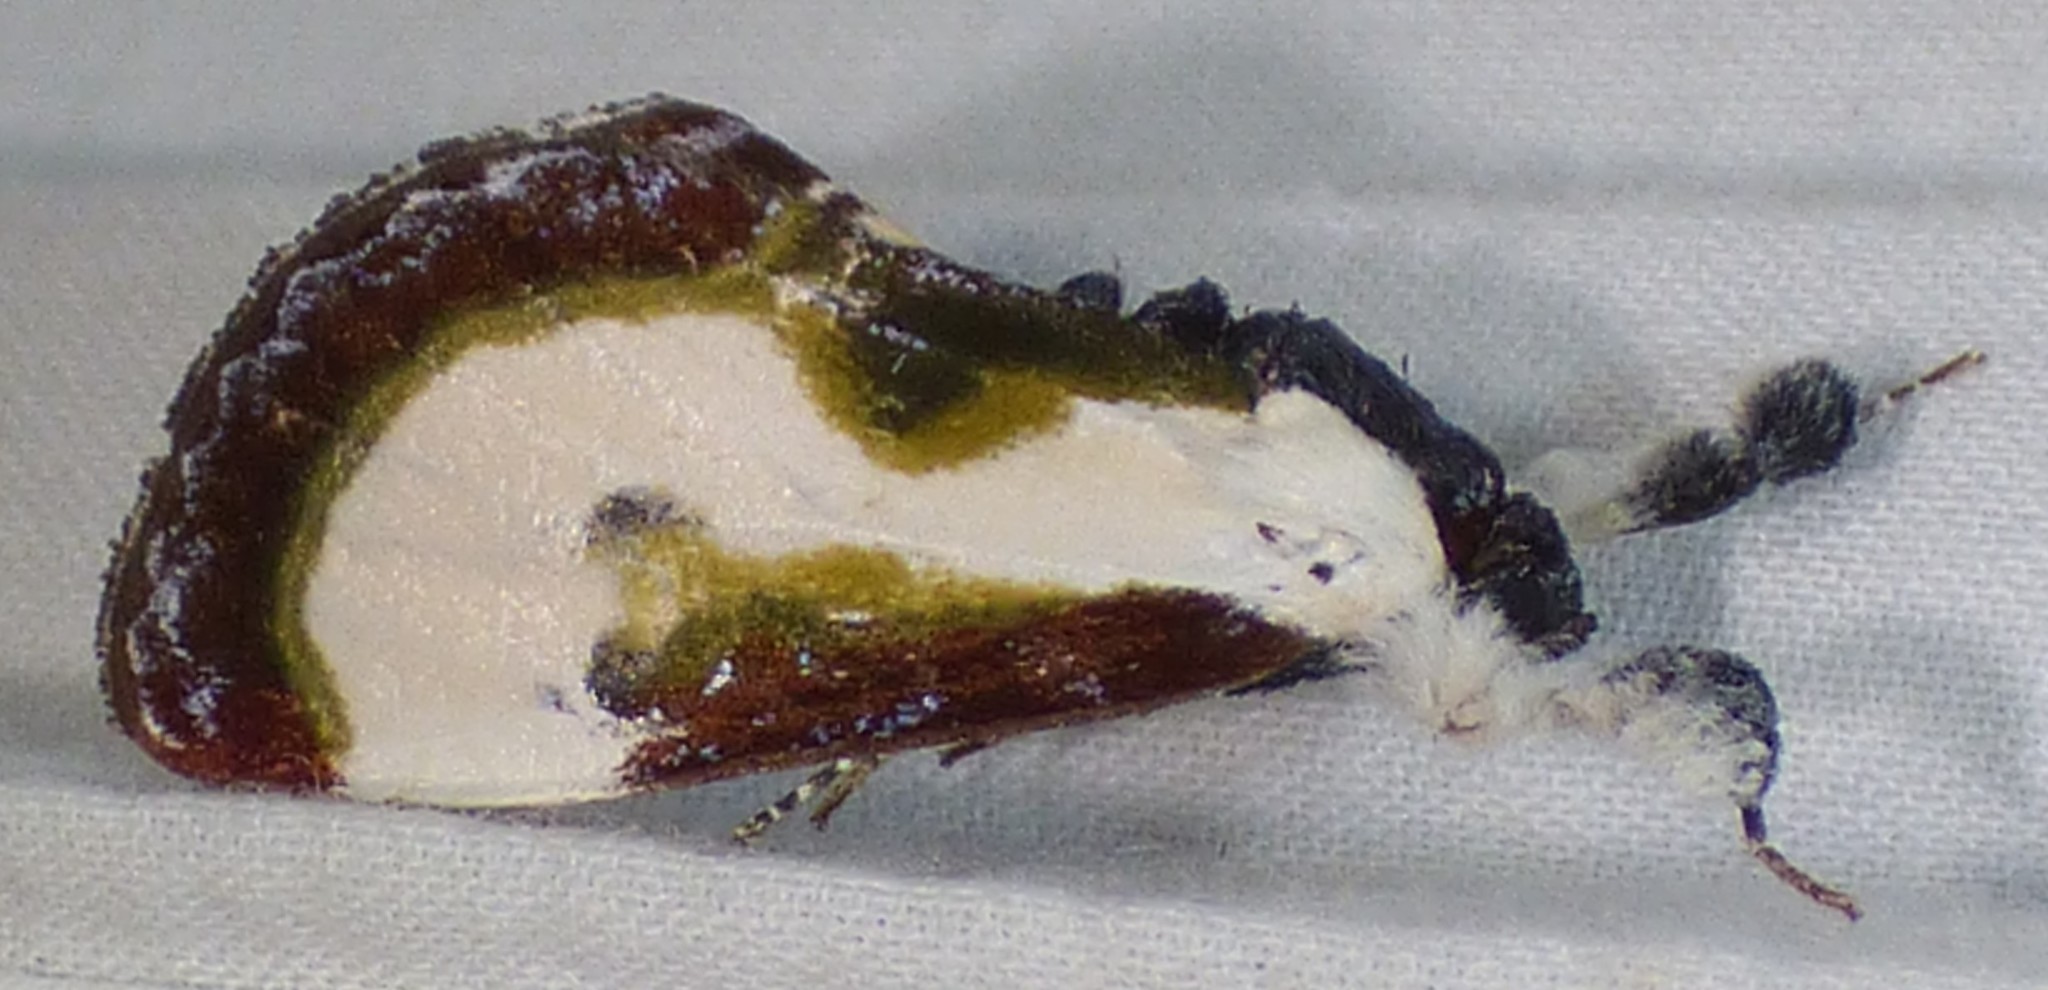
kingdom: Animalia
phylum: Arthropoda
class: Insecta
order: Lepidoptera
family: Noctuidae
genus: Eudryas
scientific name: Eudryas grata
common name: Beautiful wood-nymph
